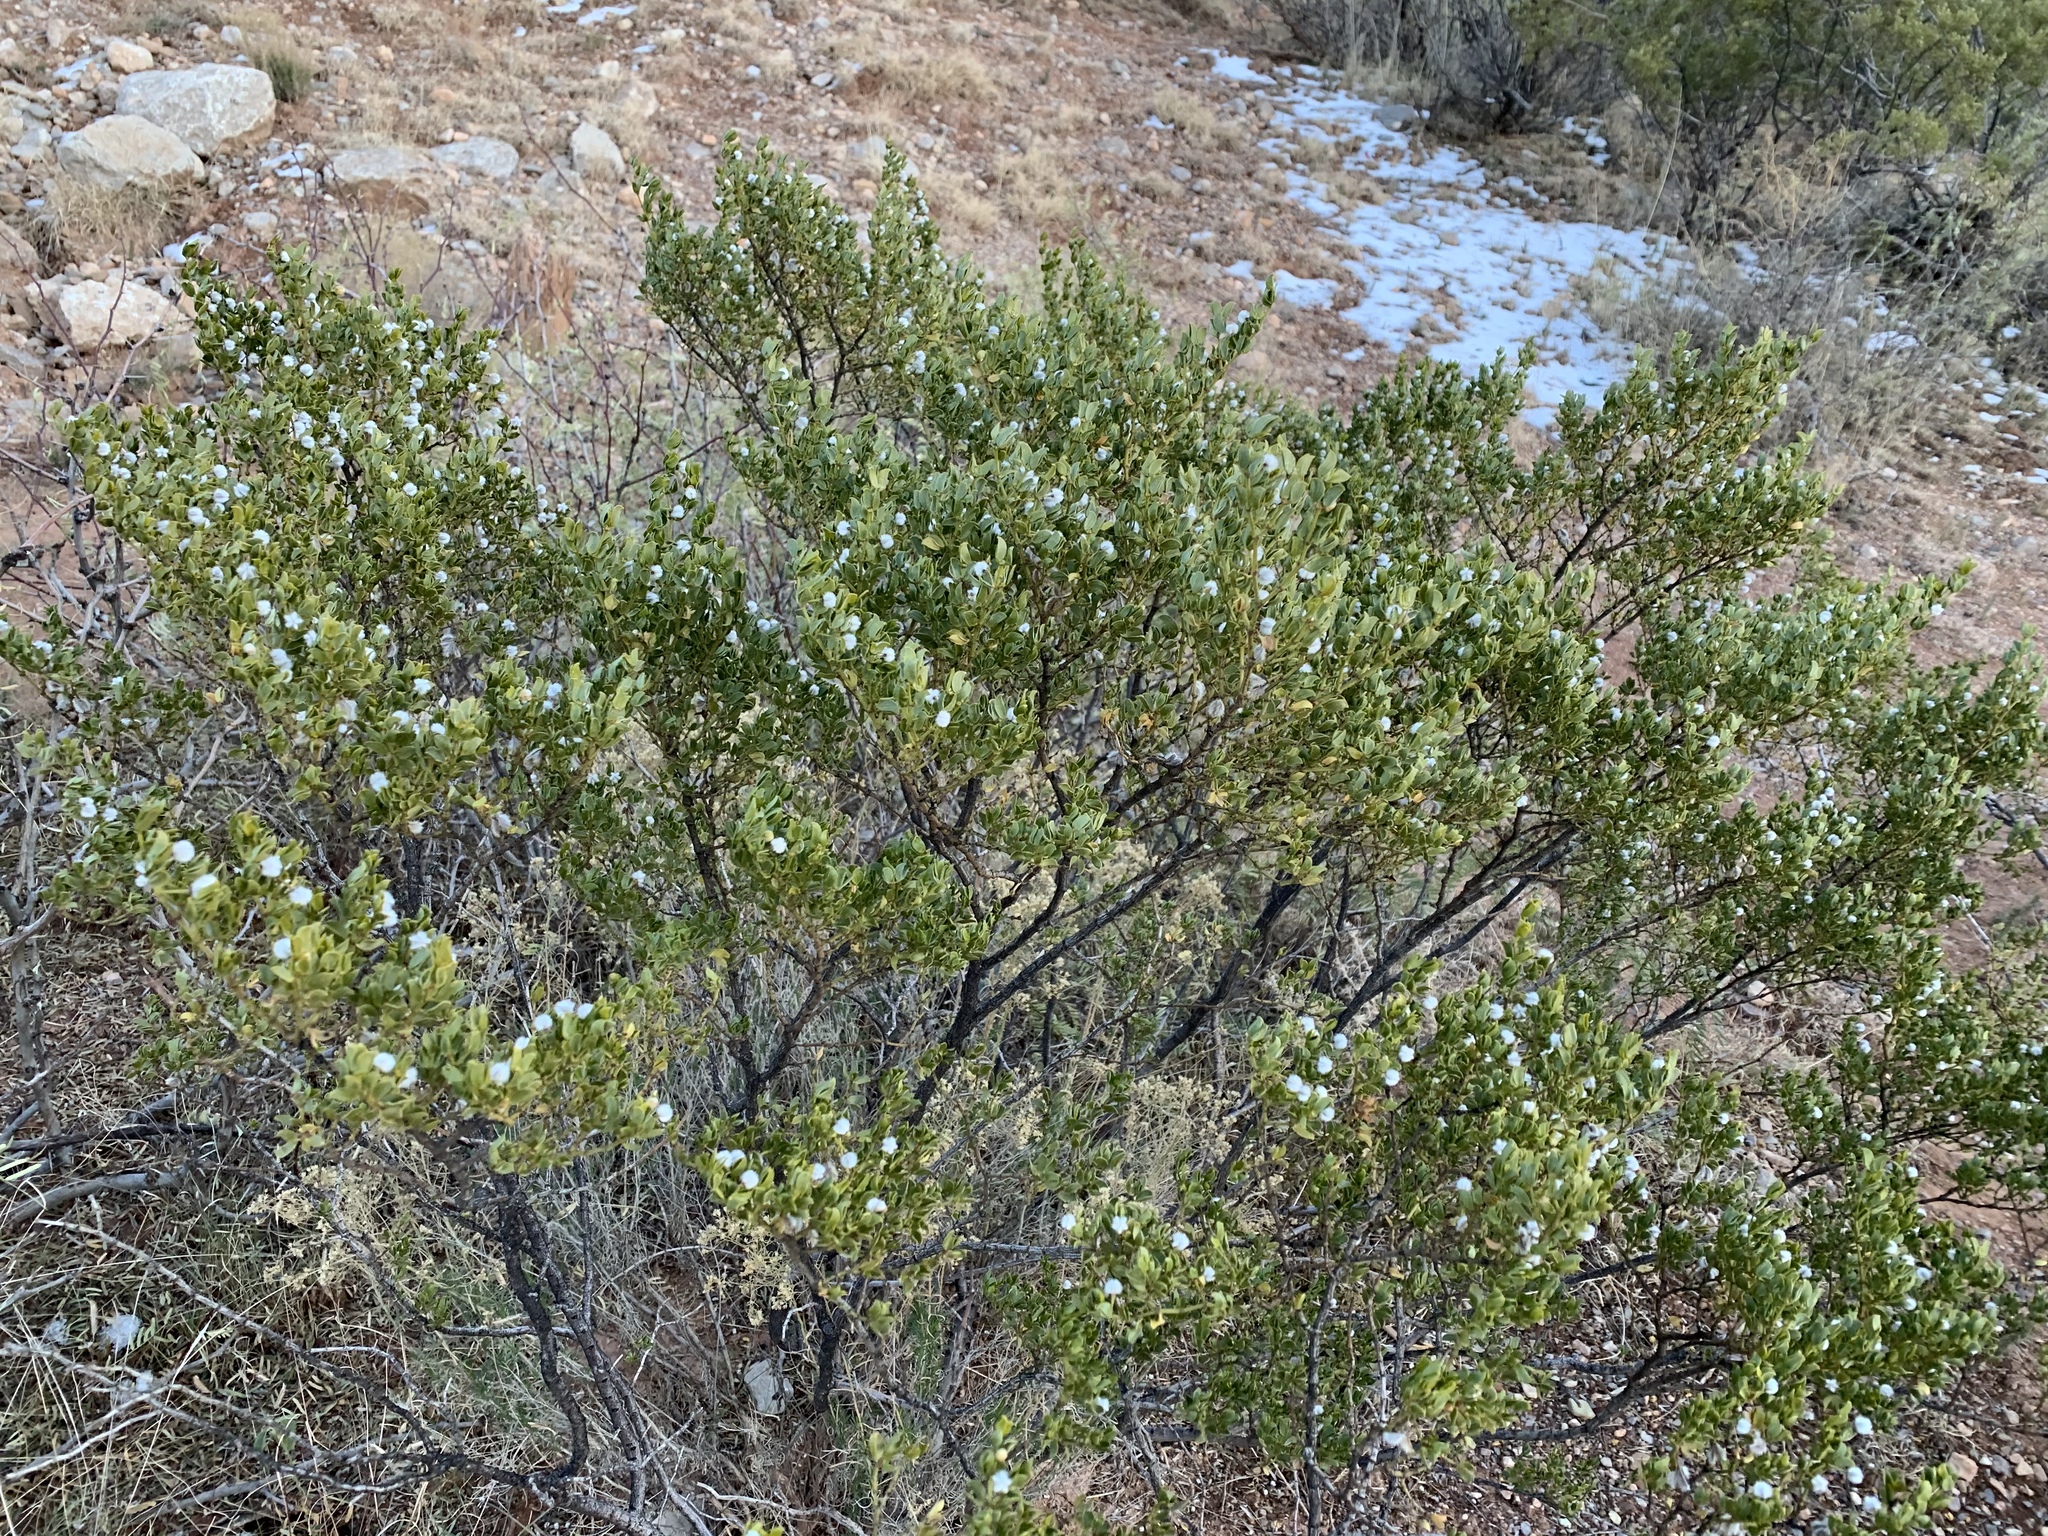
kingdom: Plantae
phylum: Tracheophyta
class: Magnoliopsida
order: Zygophyllales
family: Zygophyllaceae
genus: Larrea
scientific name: Larrea tridentata
